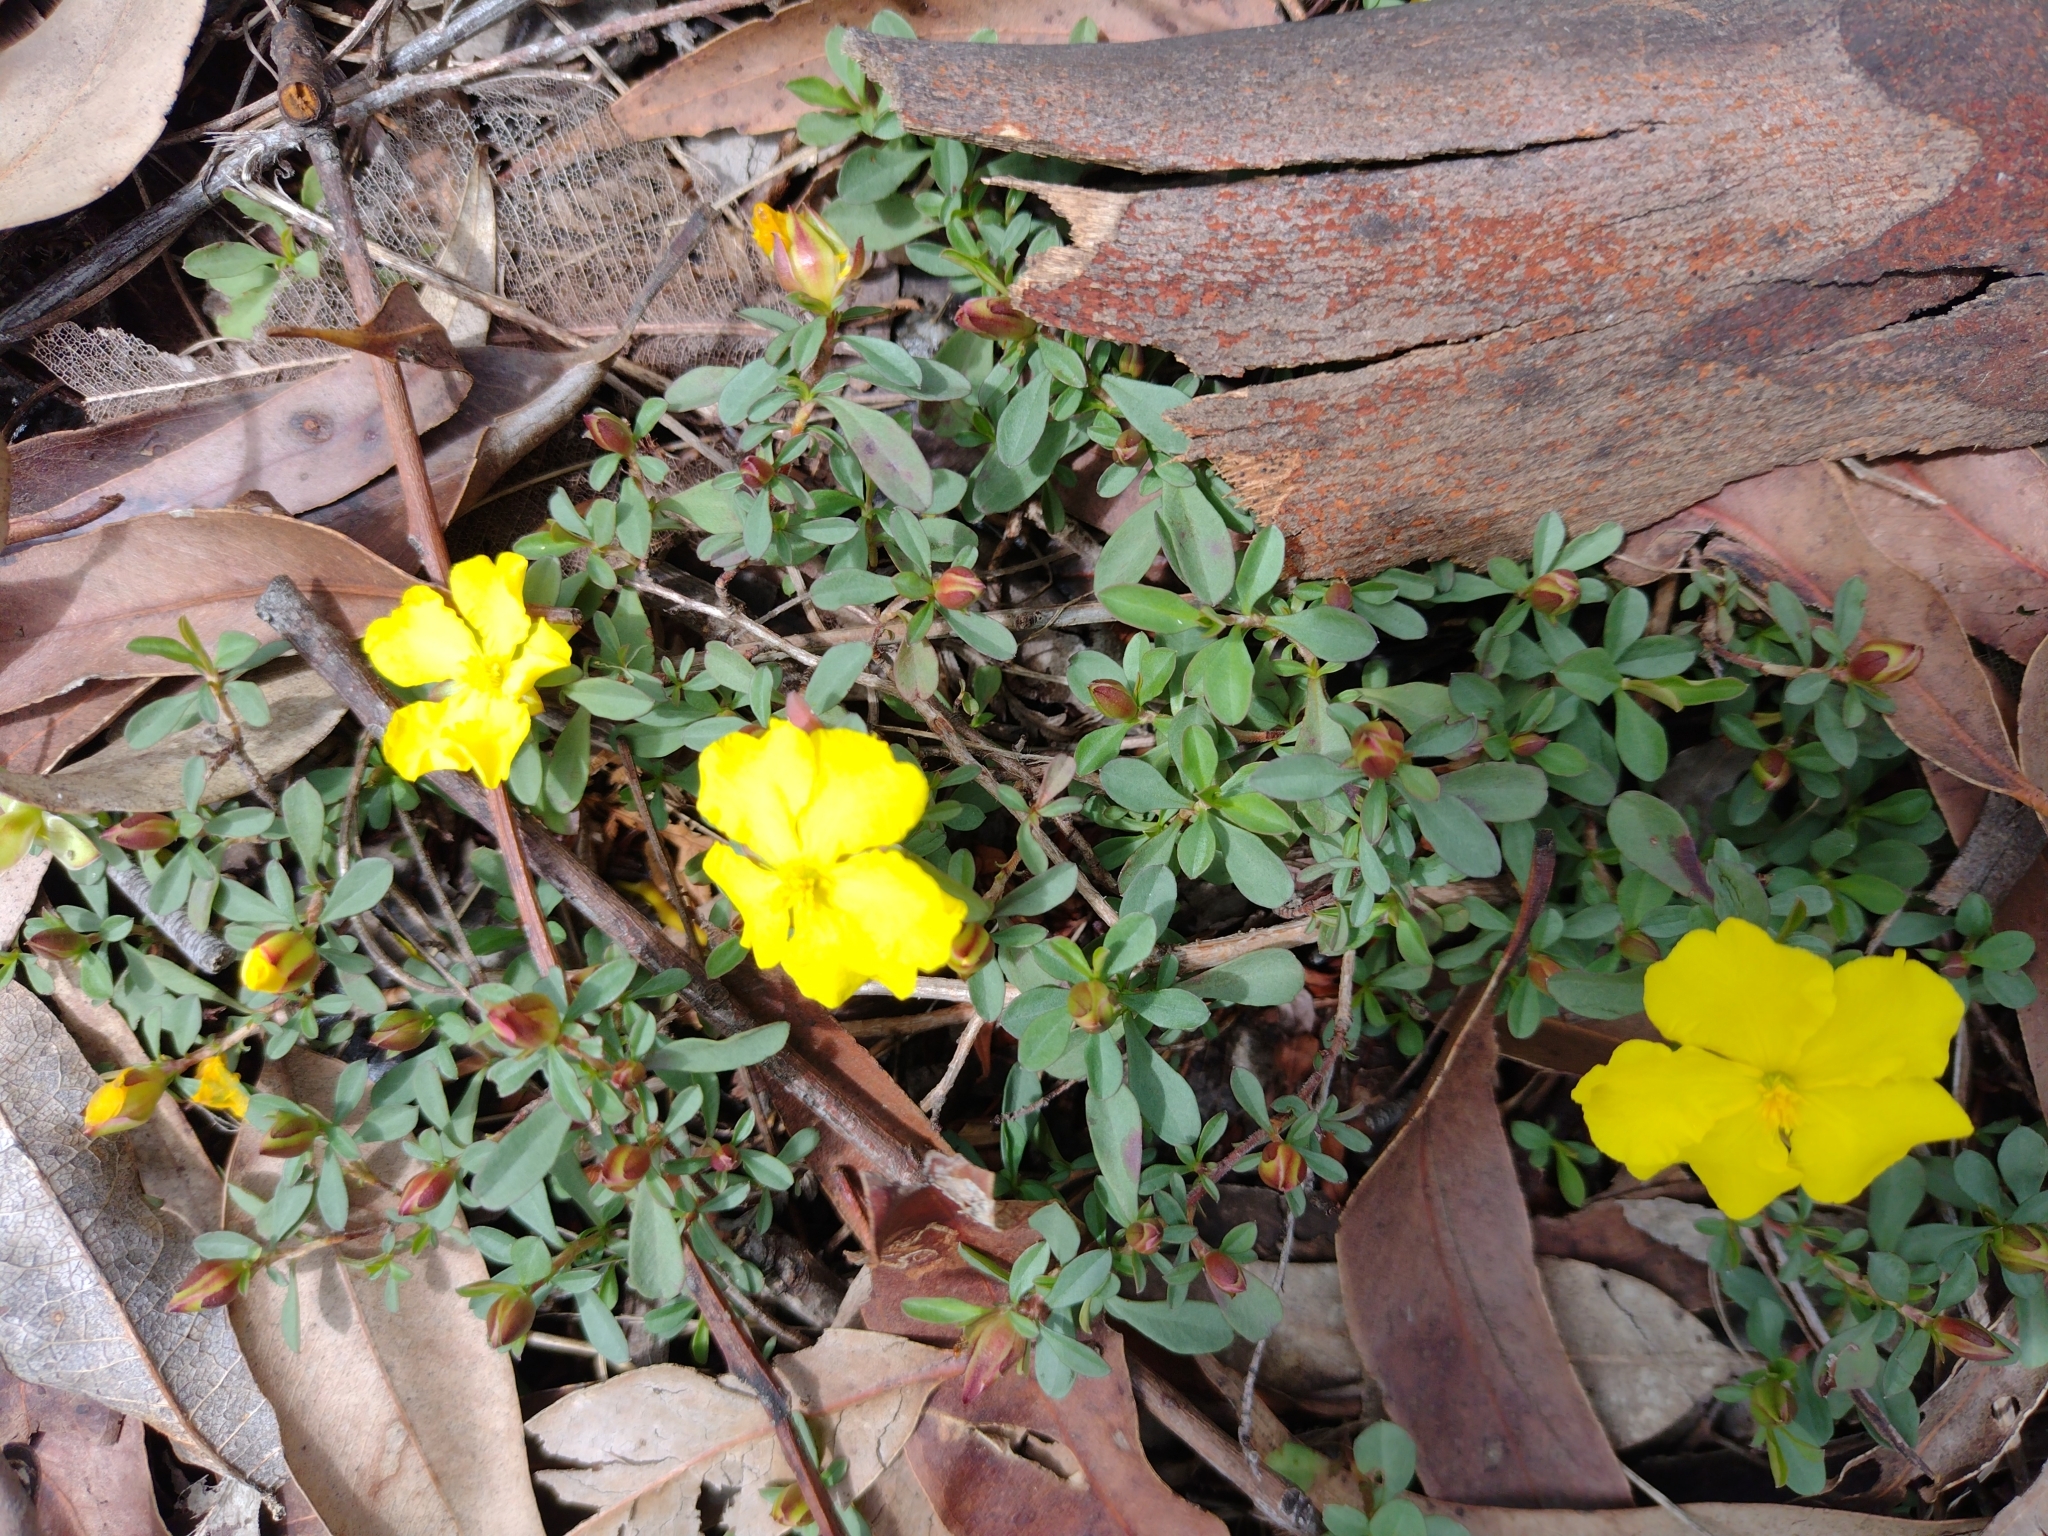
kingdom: Plantae
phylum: Tracheophyta
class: Magnoliopsida
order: Dilleniales
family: Dilleniaceae
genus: Hibbertia
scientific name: Hibbertia diffusa
